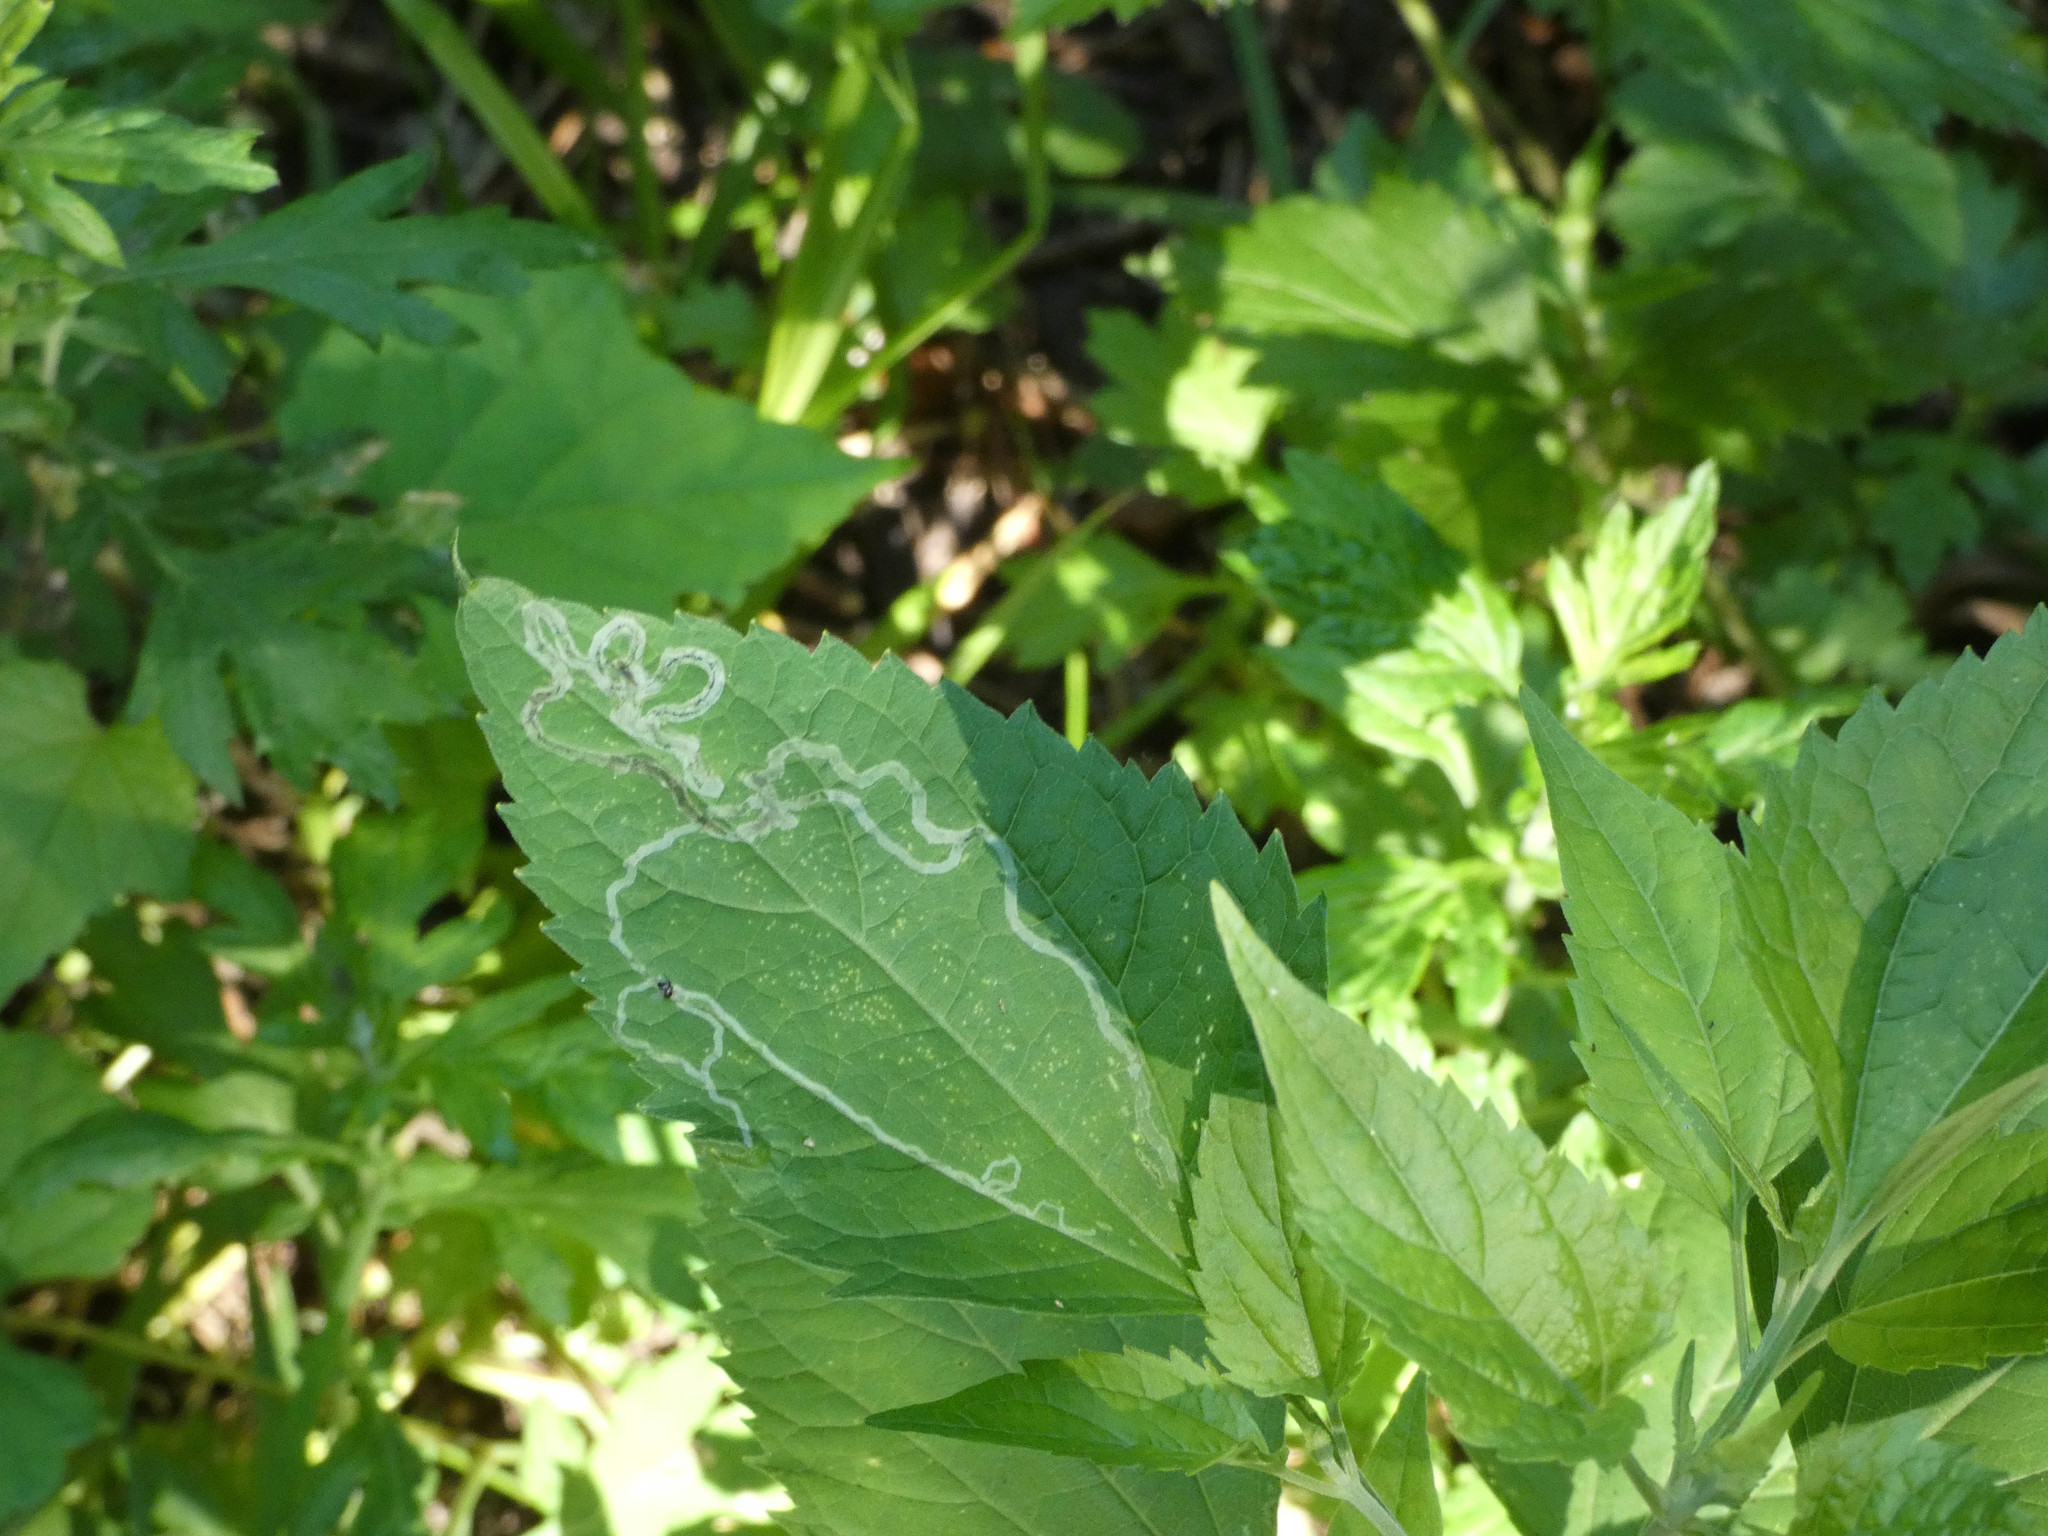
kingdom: Animalia
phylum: Arthropoda
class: Insecta
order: Diptera
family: Agromyzidae
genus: Liriomyza
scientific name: Liriomyza
